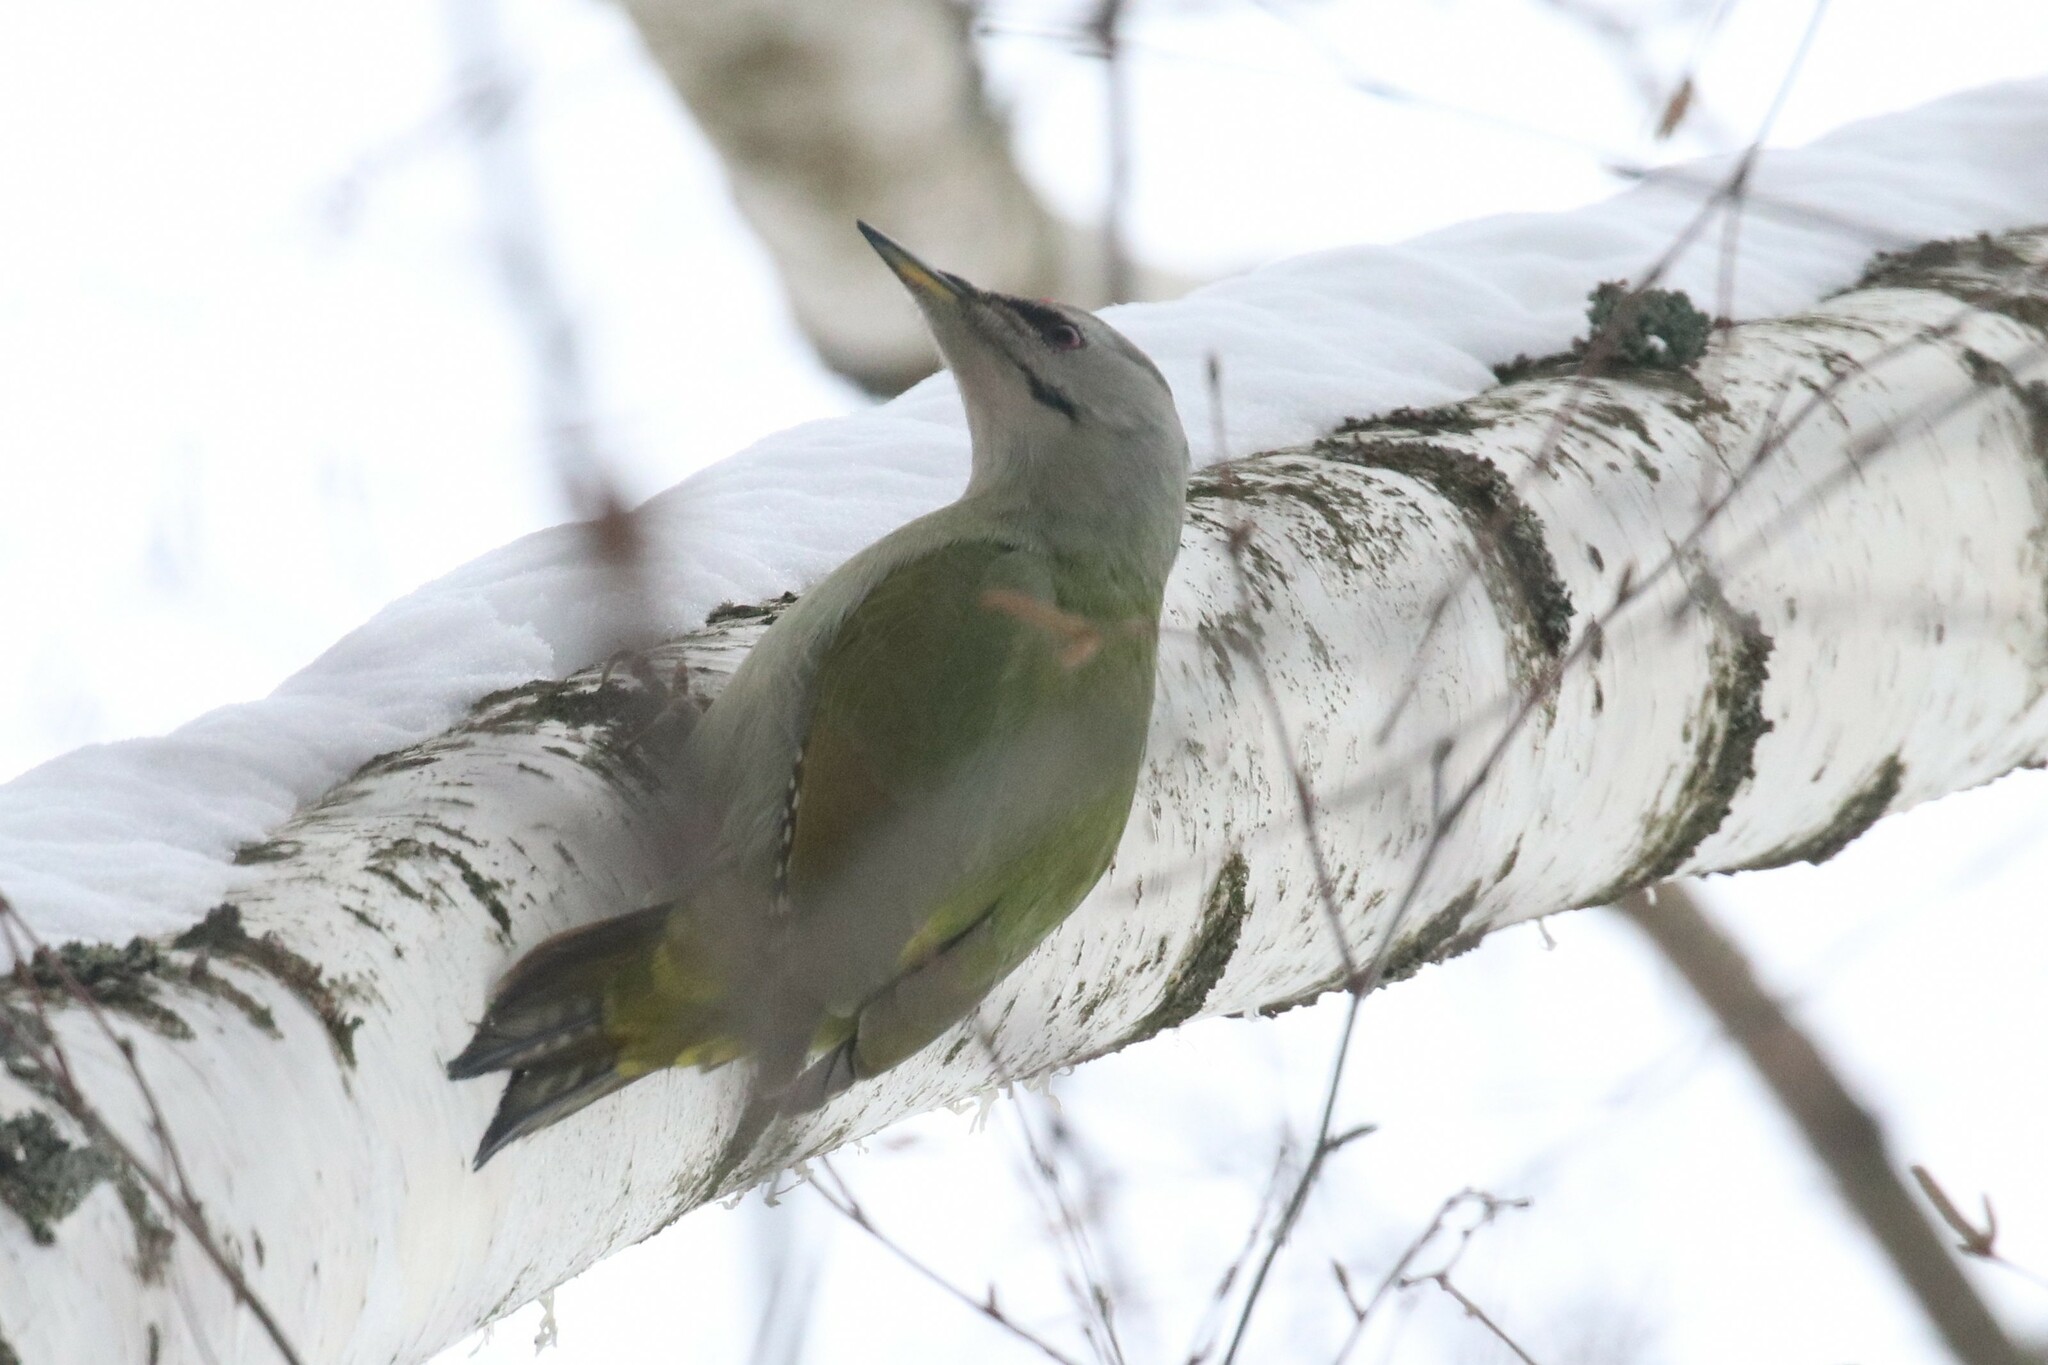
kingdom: Animalia
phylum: Chordata
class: Aves
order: Piciformes
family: Picidae
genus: Picus
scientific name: Picus canus
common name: Grey-headed woodpecker
